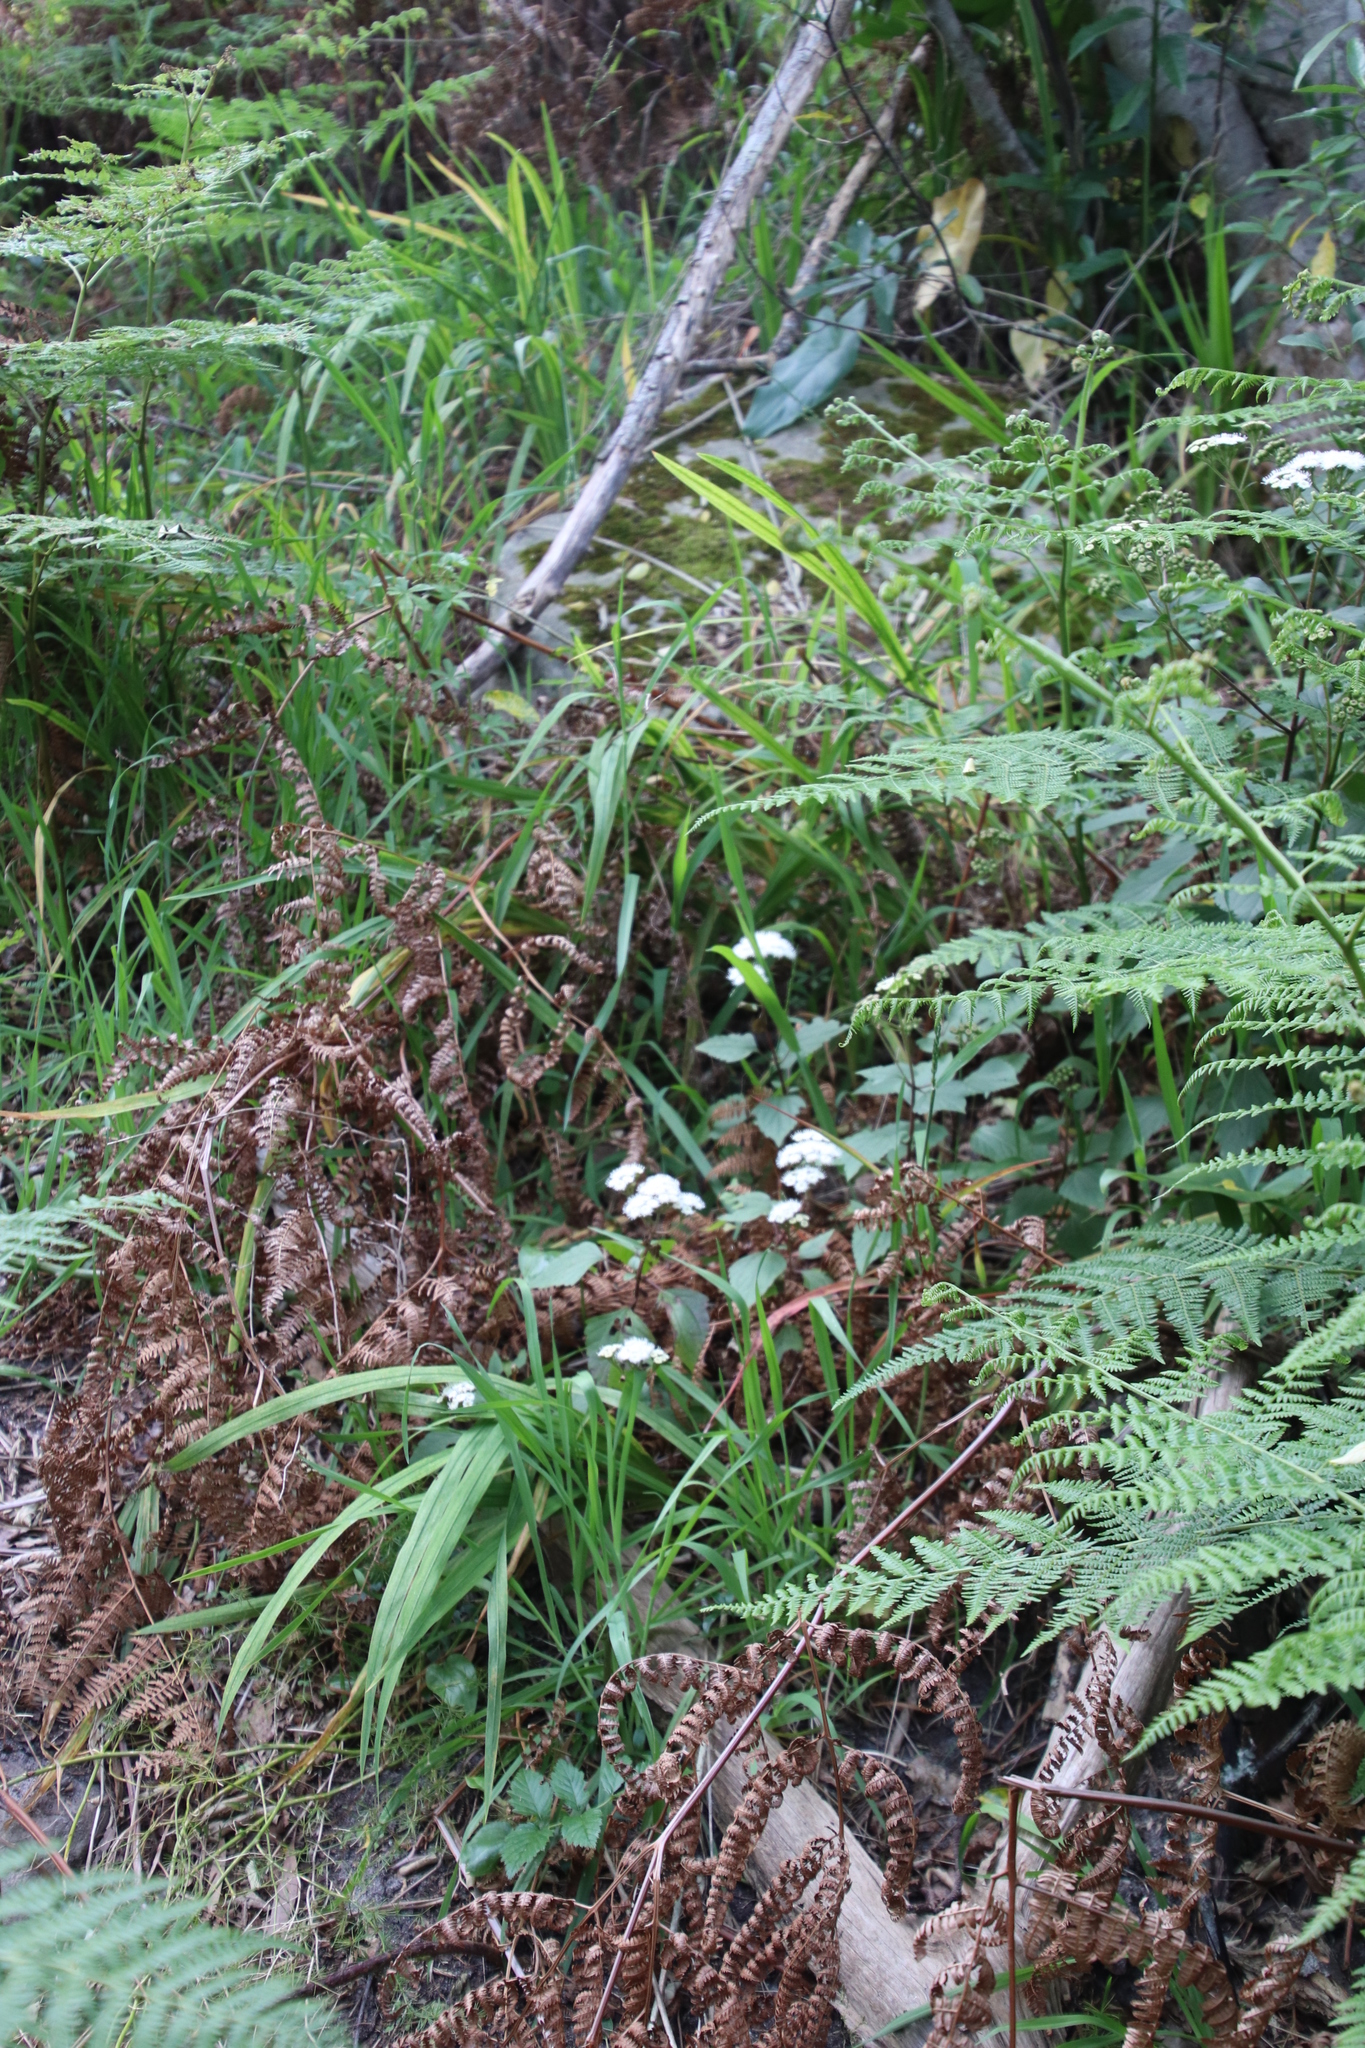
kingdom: Plantae
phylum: Tracheophyta
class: Magnoliopsida
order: Asterales
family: Asteraceae
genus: Ageratina
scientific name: Ageratina adenophora
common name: Sticky snakeroot
